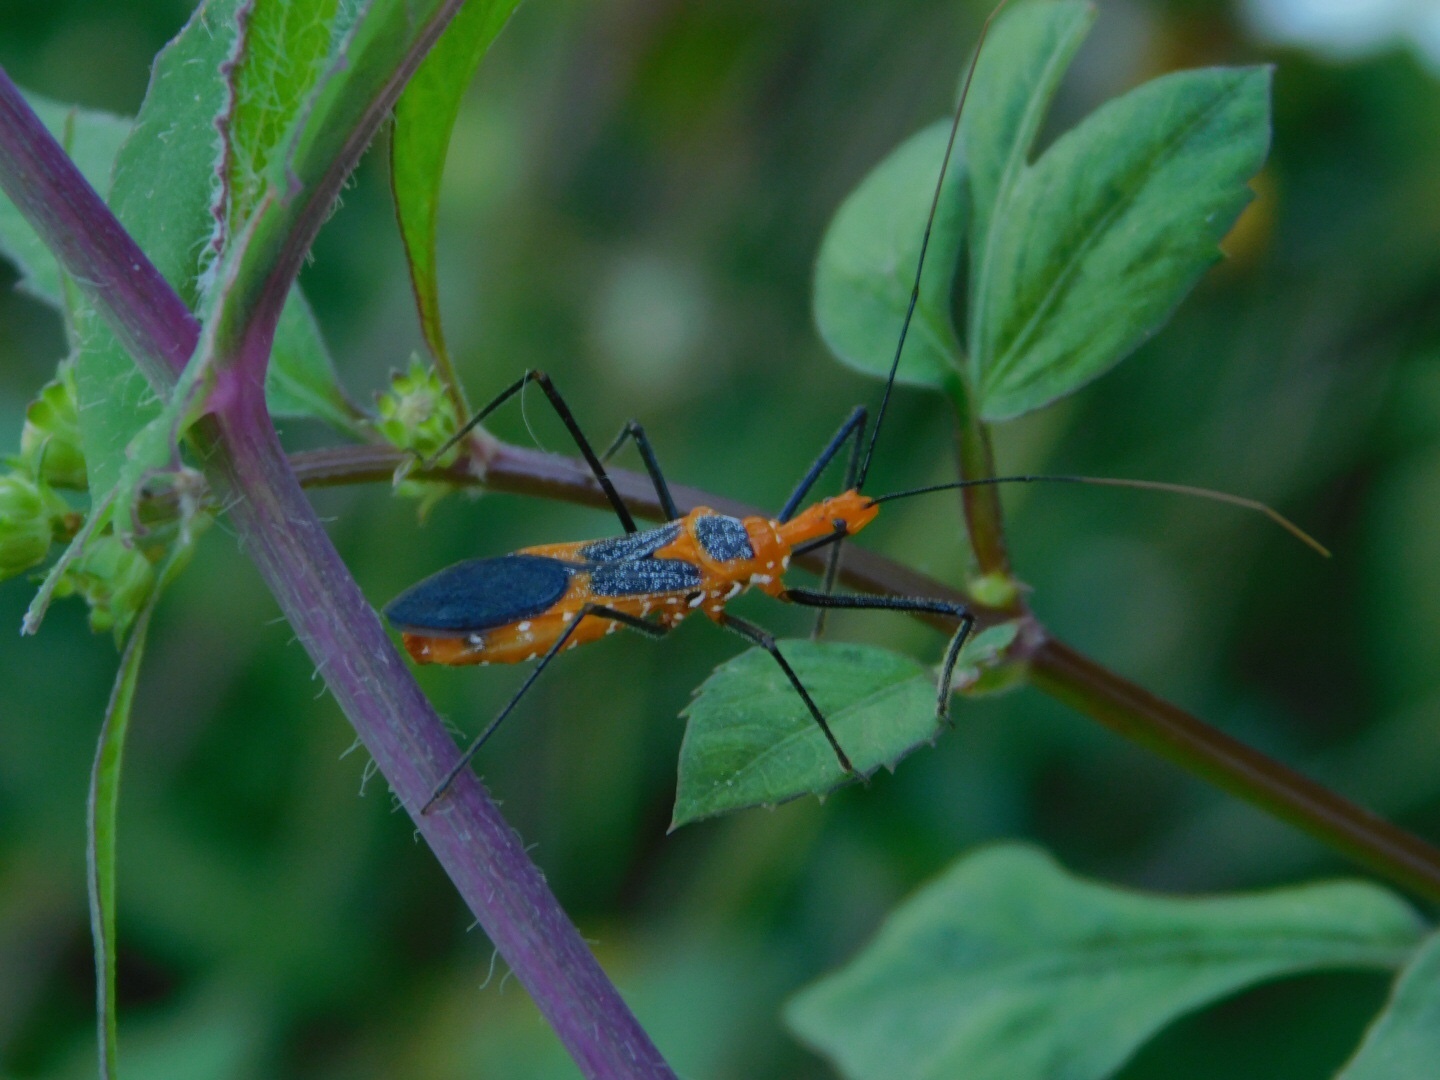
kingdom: Animalia
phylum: Arthropoda
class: Insecta
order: Hemiptera
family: Reduviidae
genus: Zelus
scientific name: Zelus longipes
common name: Milkweed assassin bug
